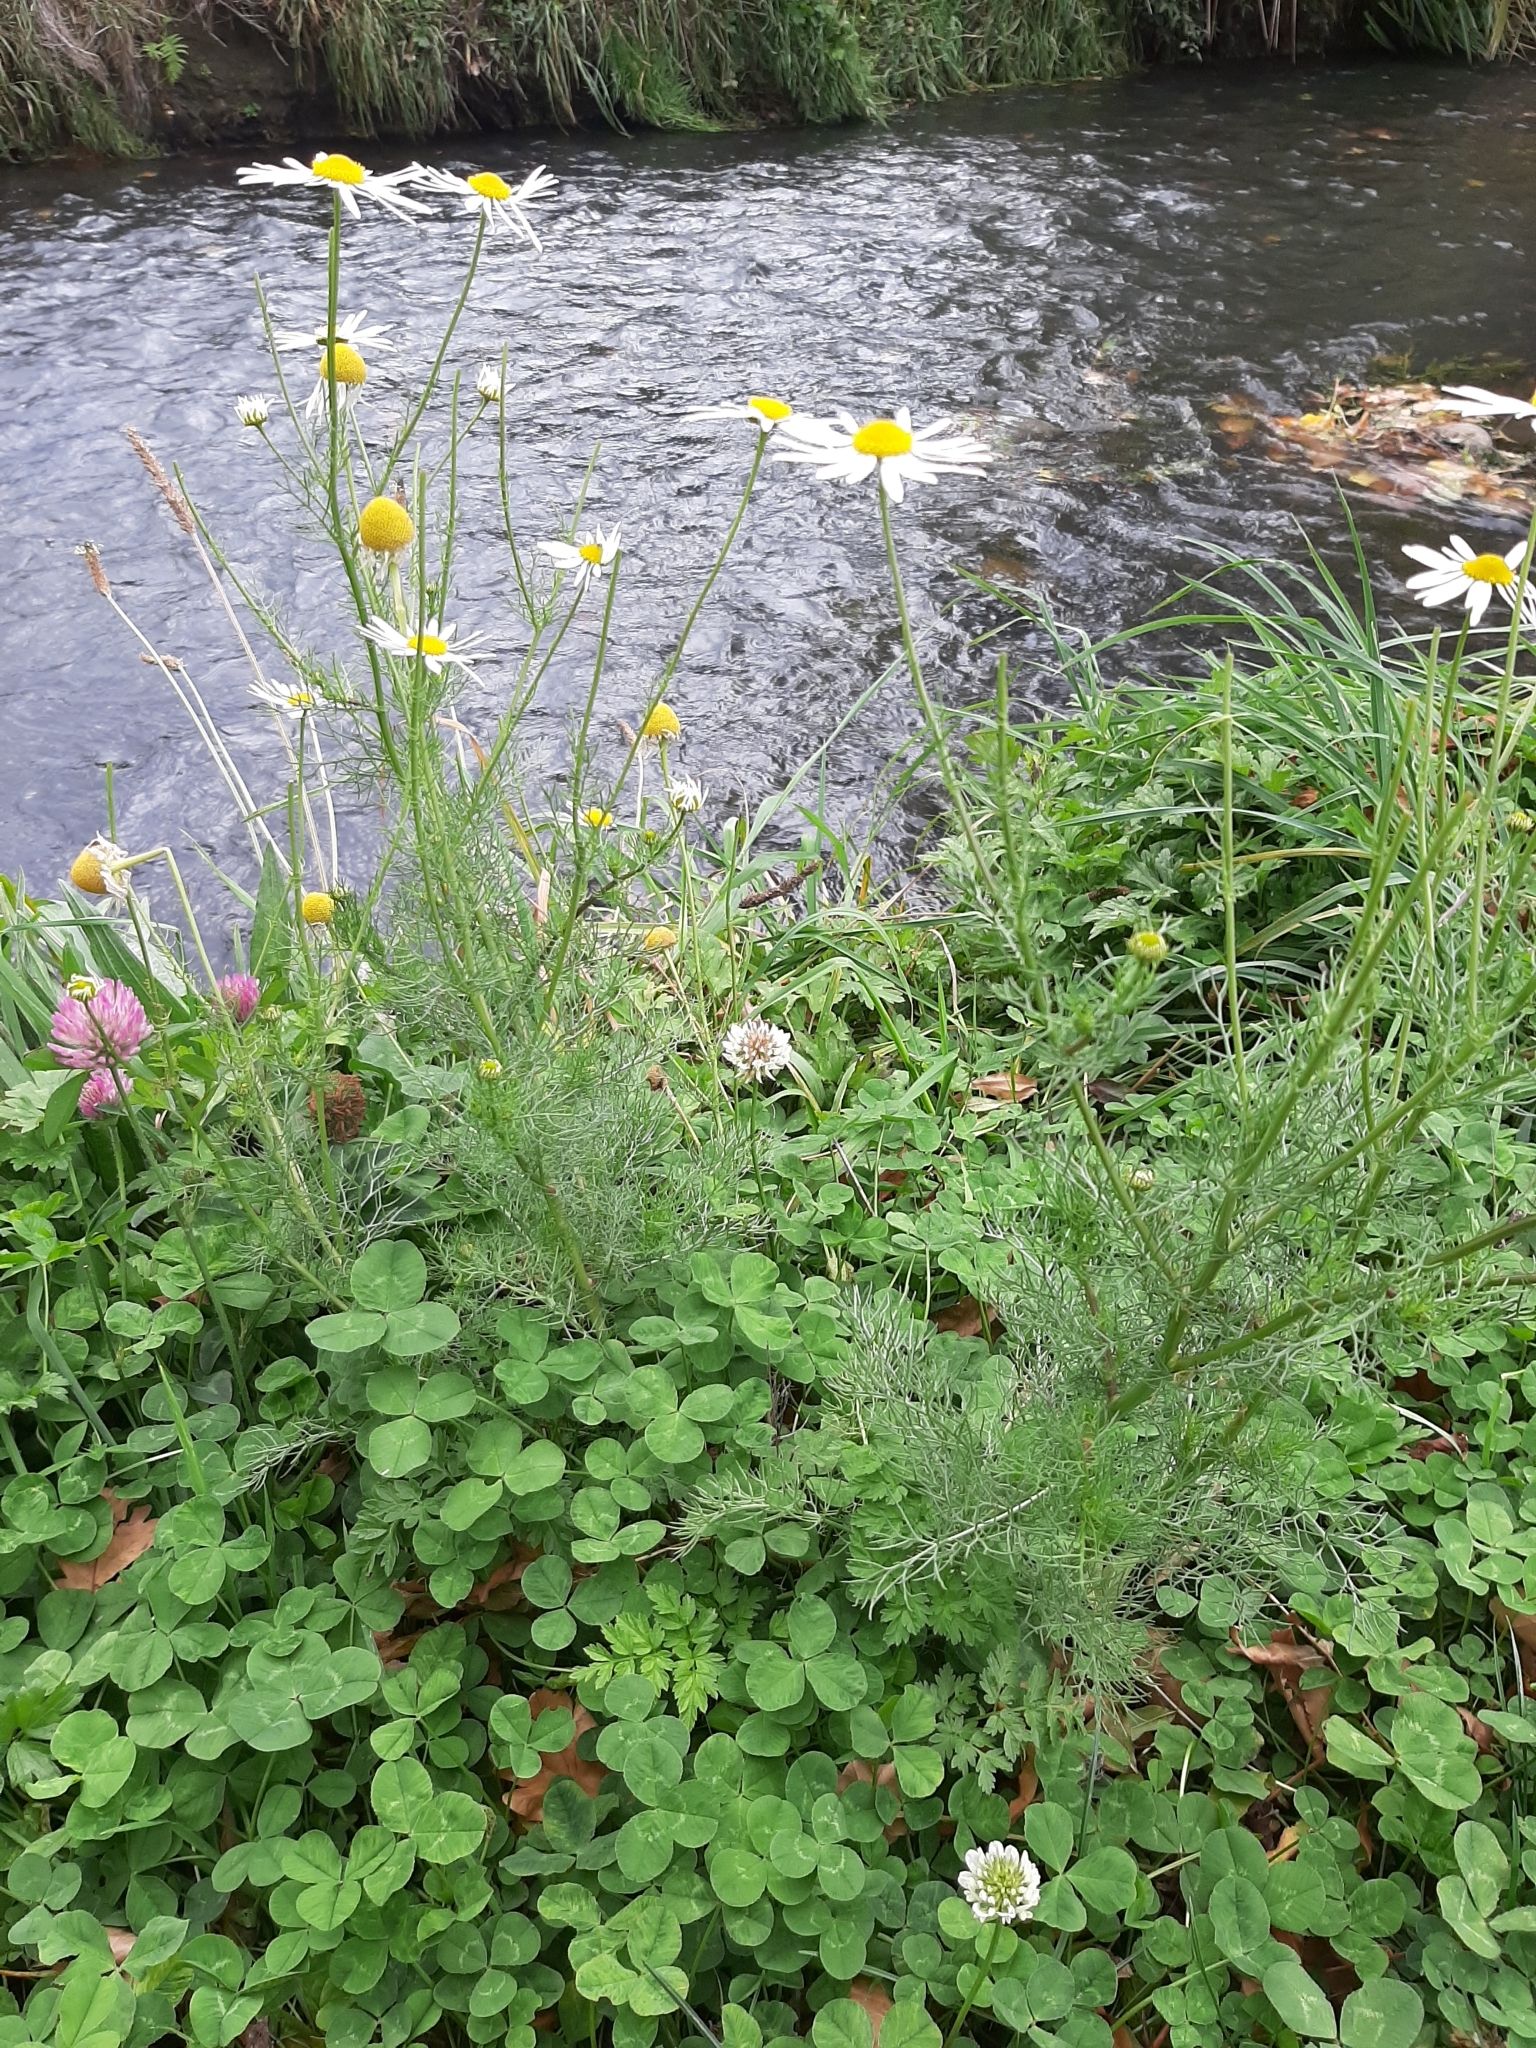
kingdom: Plantae
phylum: Tracheophyta
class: Magnoliopsida
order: Asterales
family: Asteraceae
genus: Tripleurospermum
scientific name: Tripleurospermum inodorum
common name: Scentless mayweed
